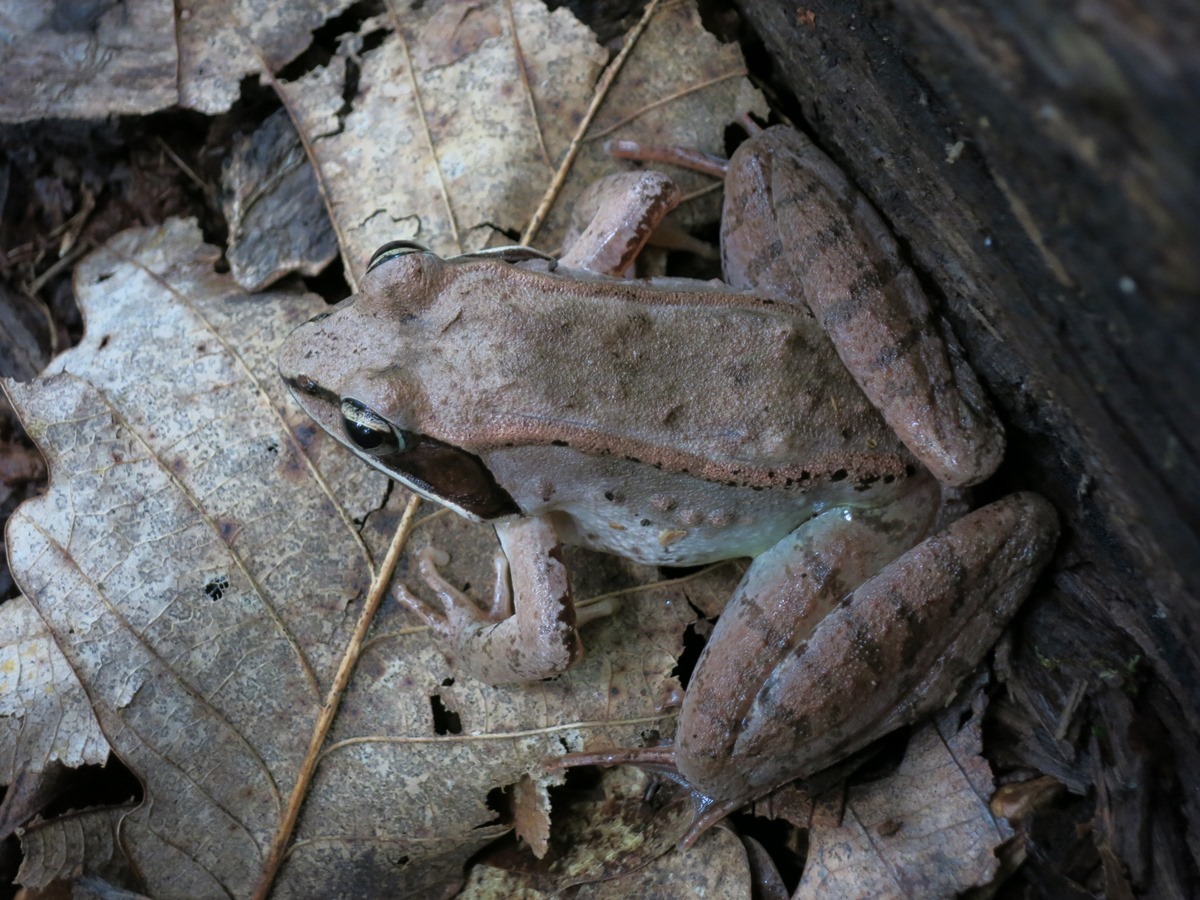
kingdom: Animalia
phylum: Chordata
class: Amphibia
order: Anura
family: Ranidae
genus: Lithobates
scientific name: Lithobates sylvaticus
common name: Wood frog
